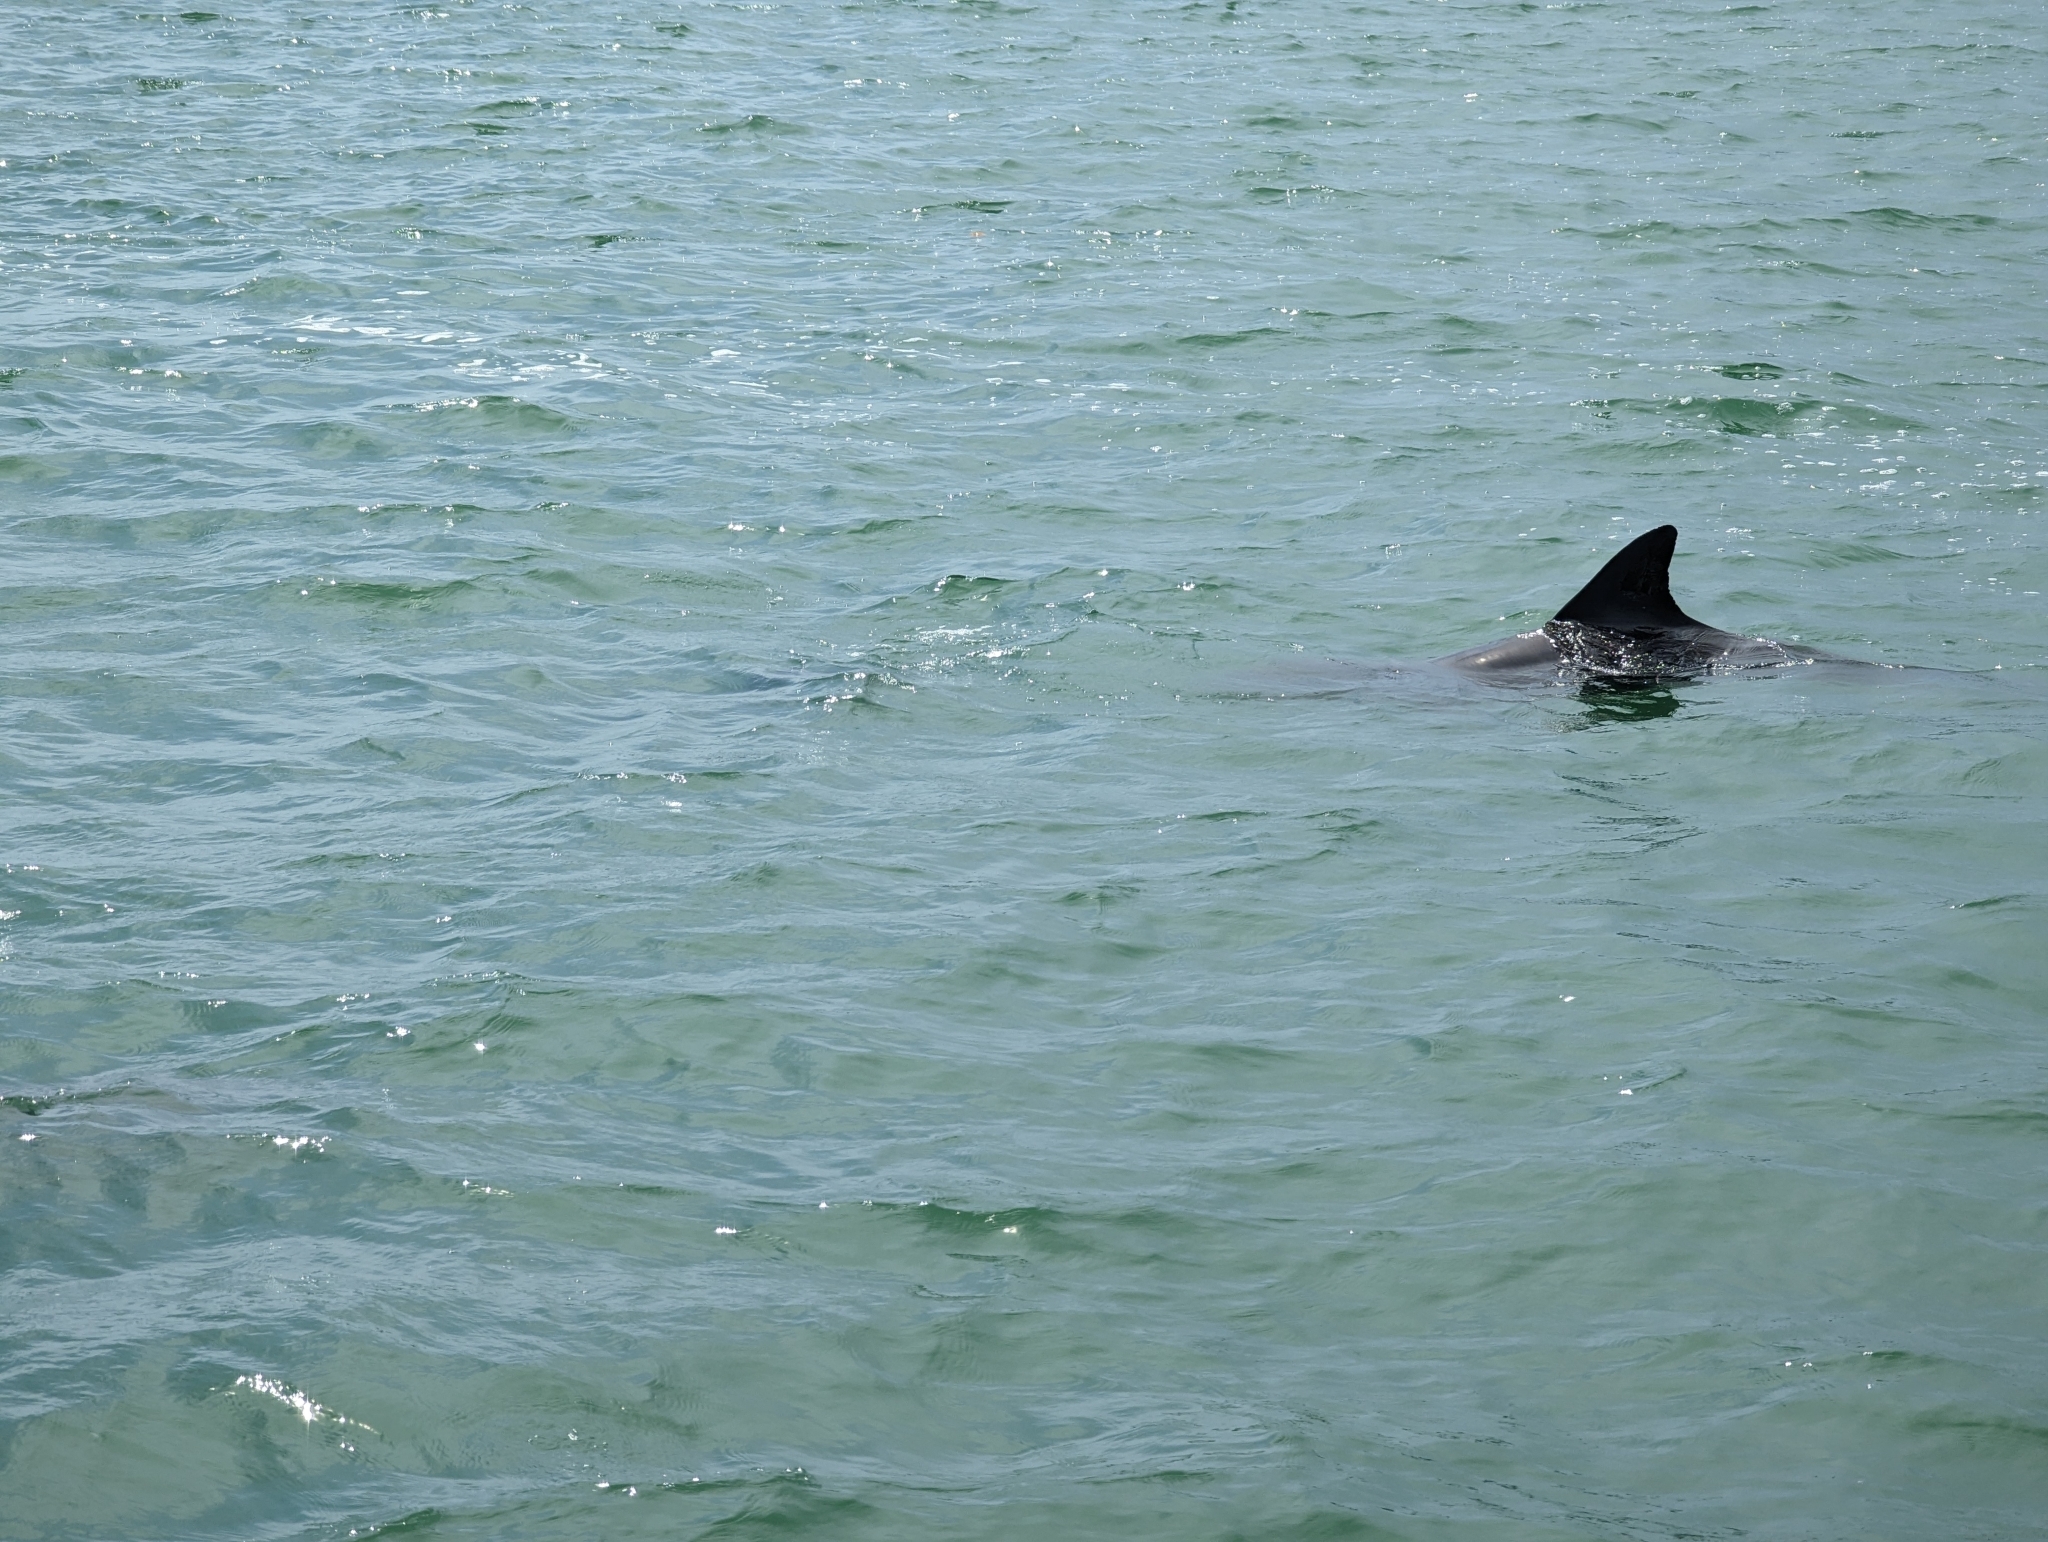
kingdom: Animalia
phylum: Chordata
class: Mammalia
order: Cetacea
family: Delphinidae
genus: Tursiops
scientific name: Tursiops truncatus
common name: Bottlenose dolphin
